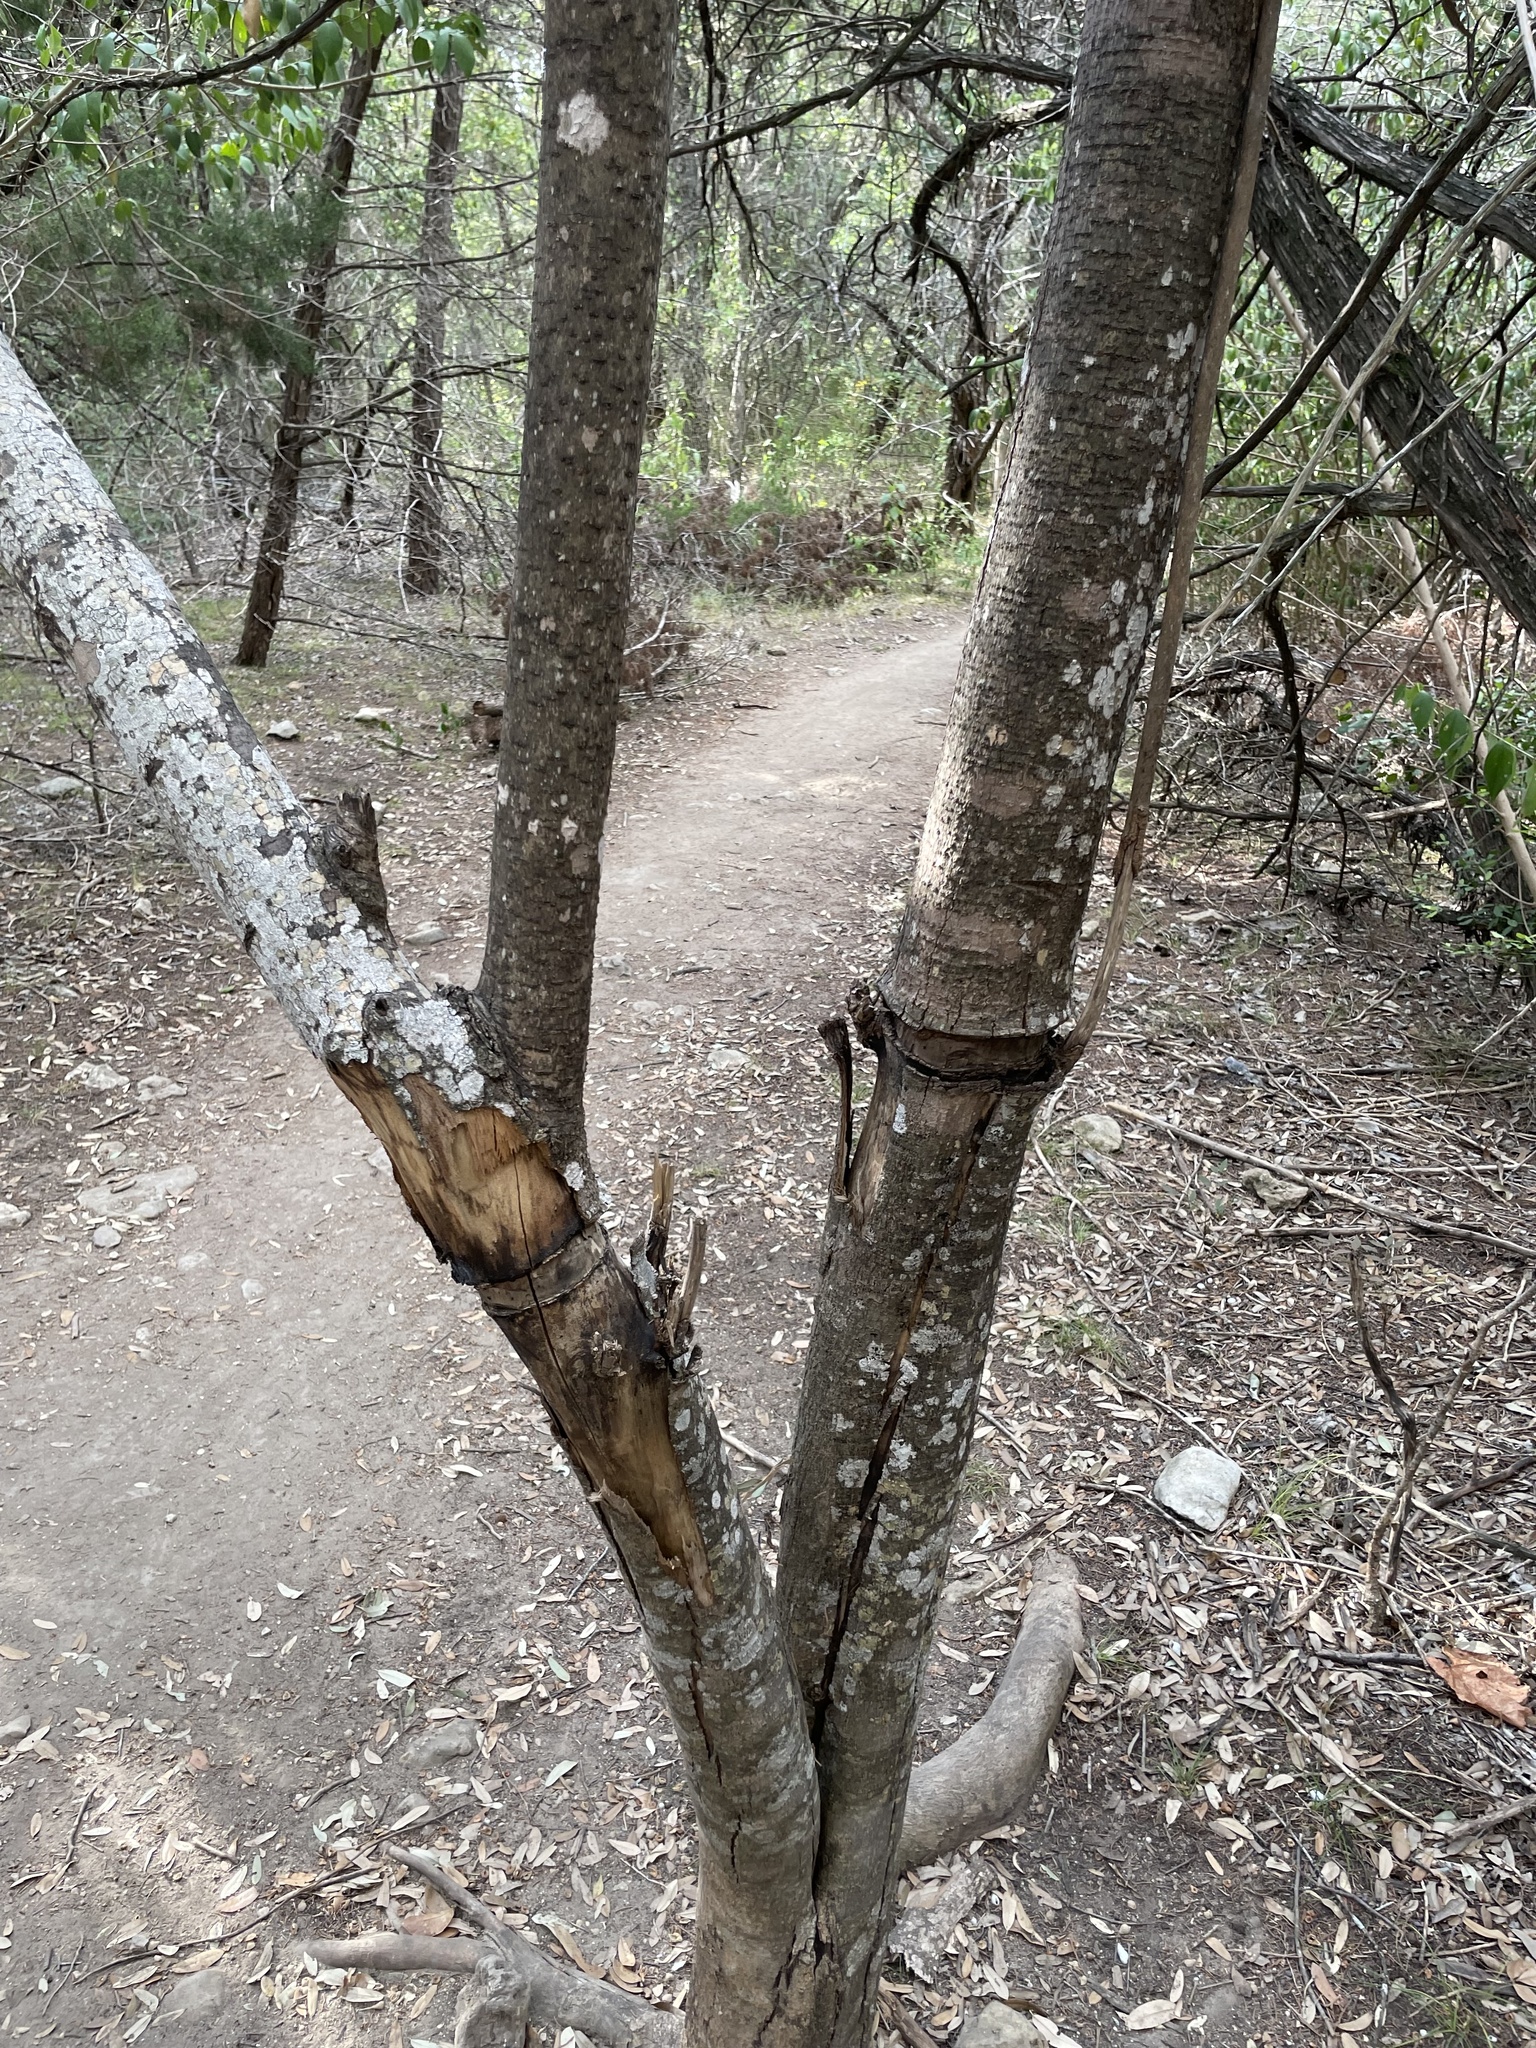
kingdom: Plantae
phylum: Tracheophyta
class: Magnoliopsida
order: Lamiales
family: Oleaceae
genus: Ligustrum
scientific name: Ligustrum lucidum
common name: Glossy privet
